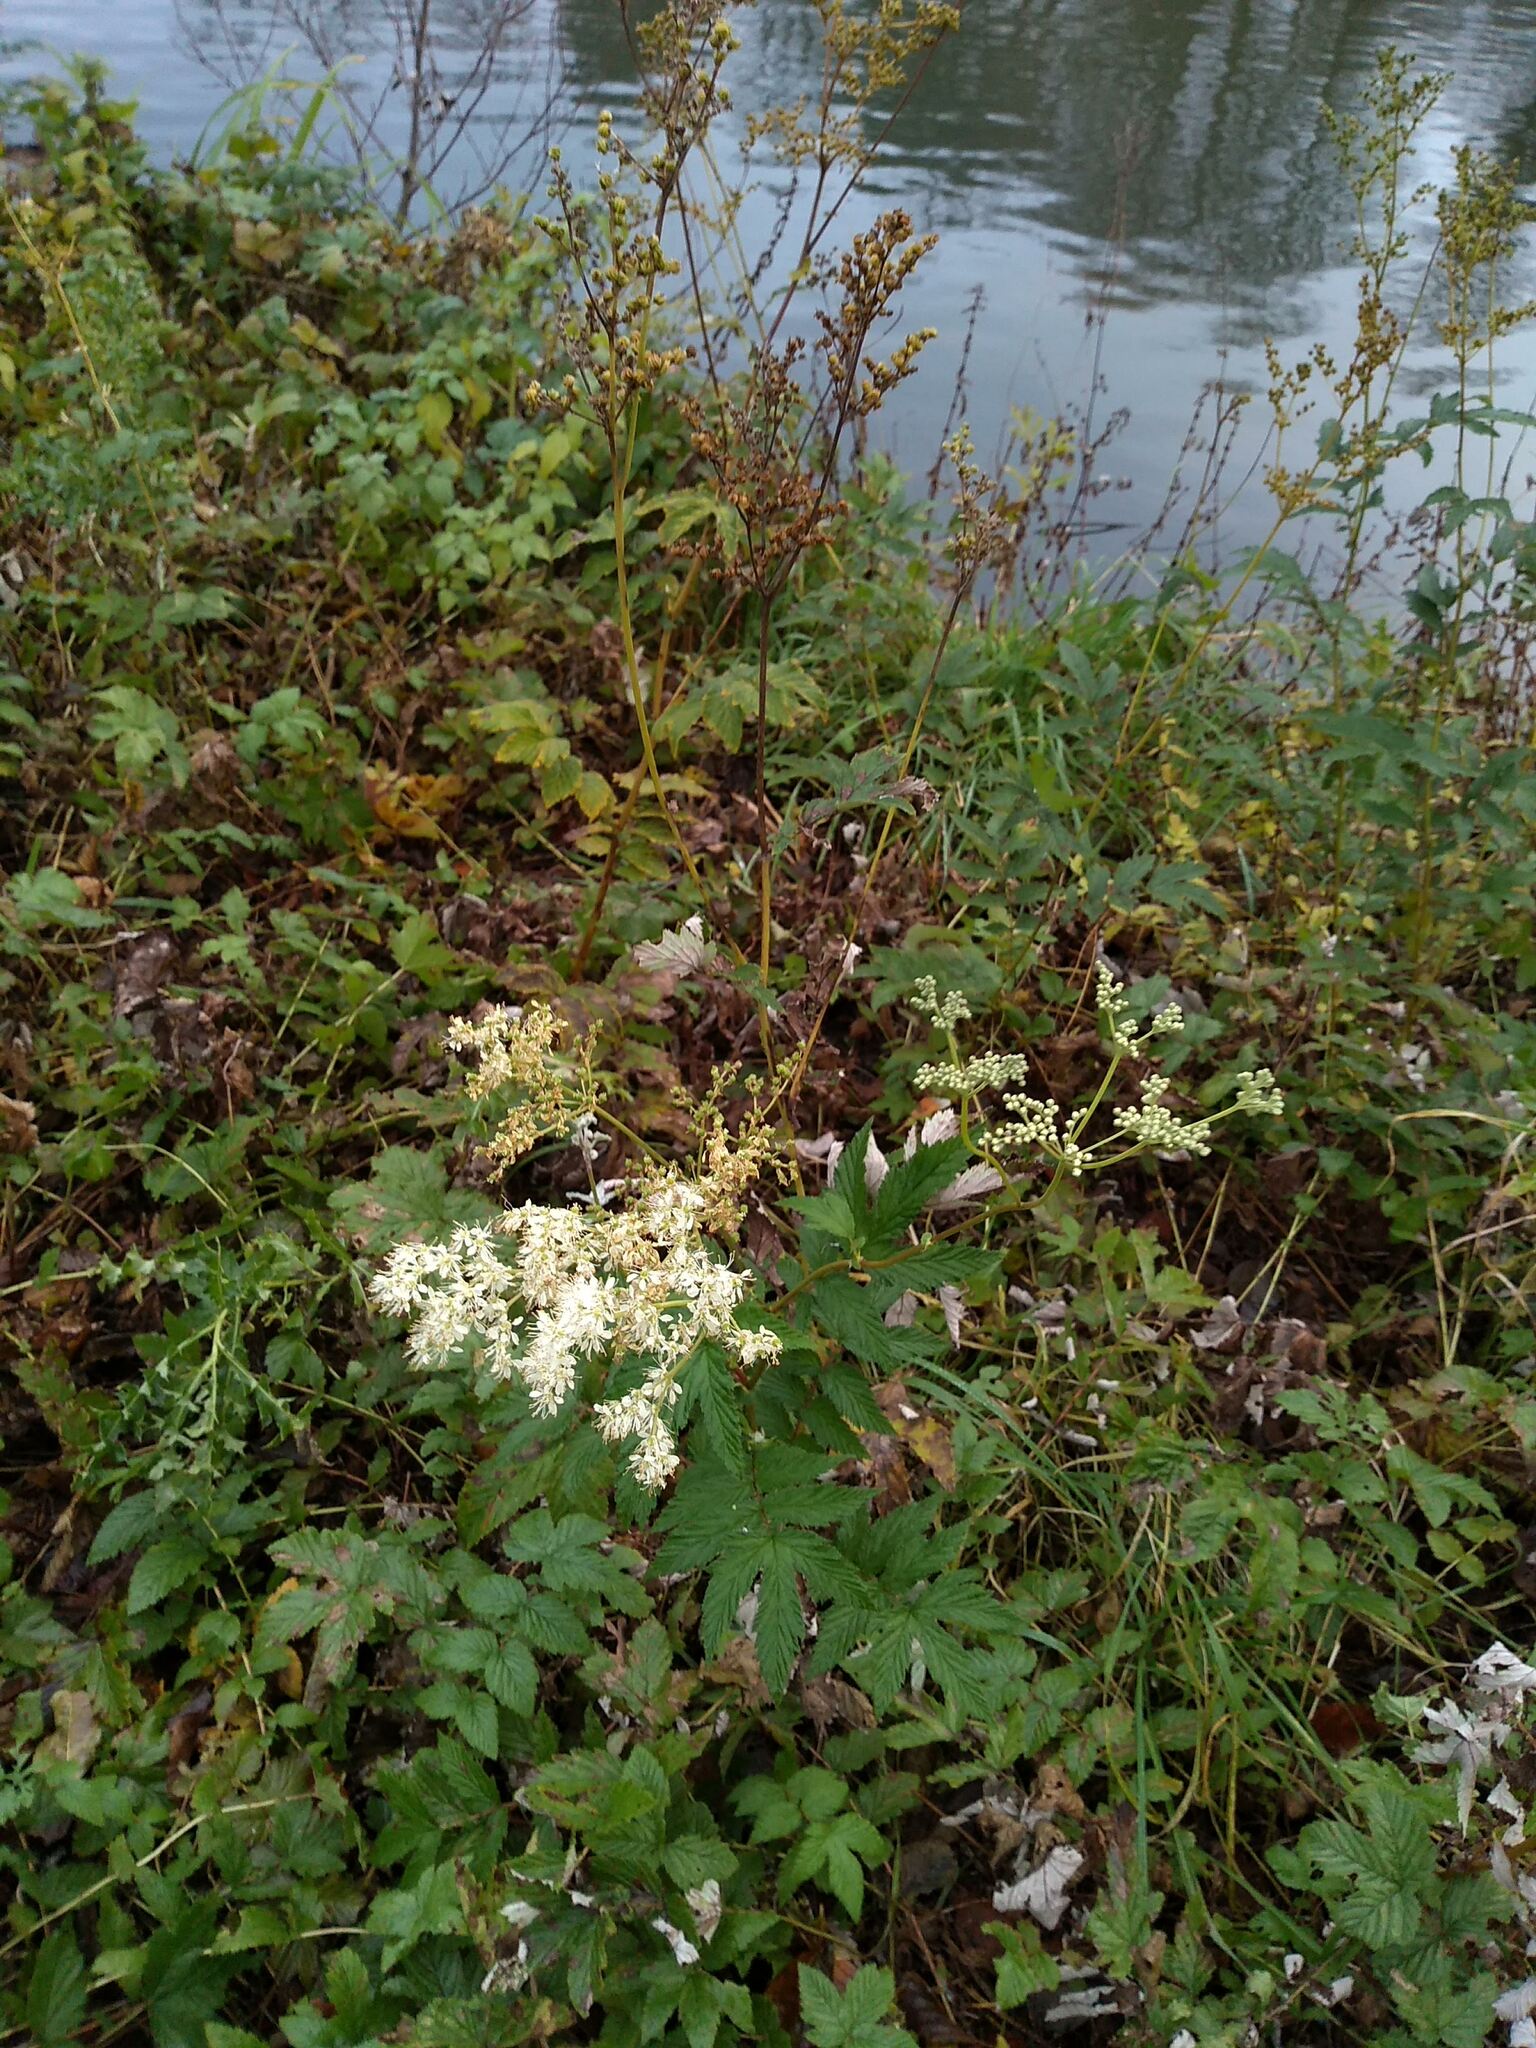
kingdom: Plantae
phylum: Tracheophyta
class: Magnoliopsida
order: Rosales
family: Rosaceae
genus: Filipendula
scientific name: Filipendula ulmaria
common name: Meadowsweet
